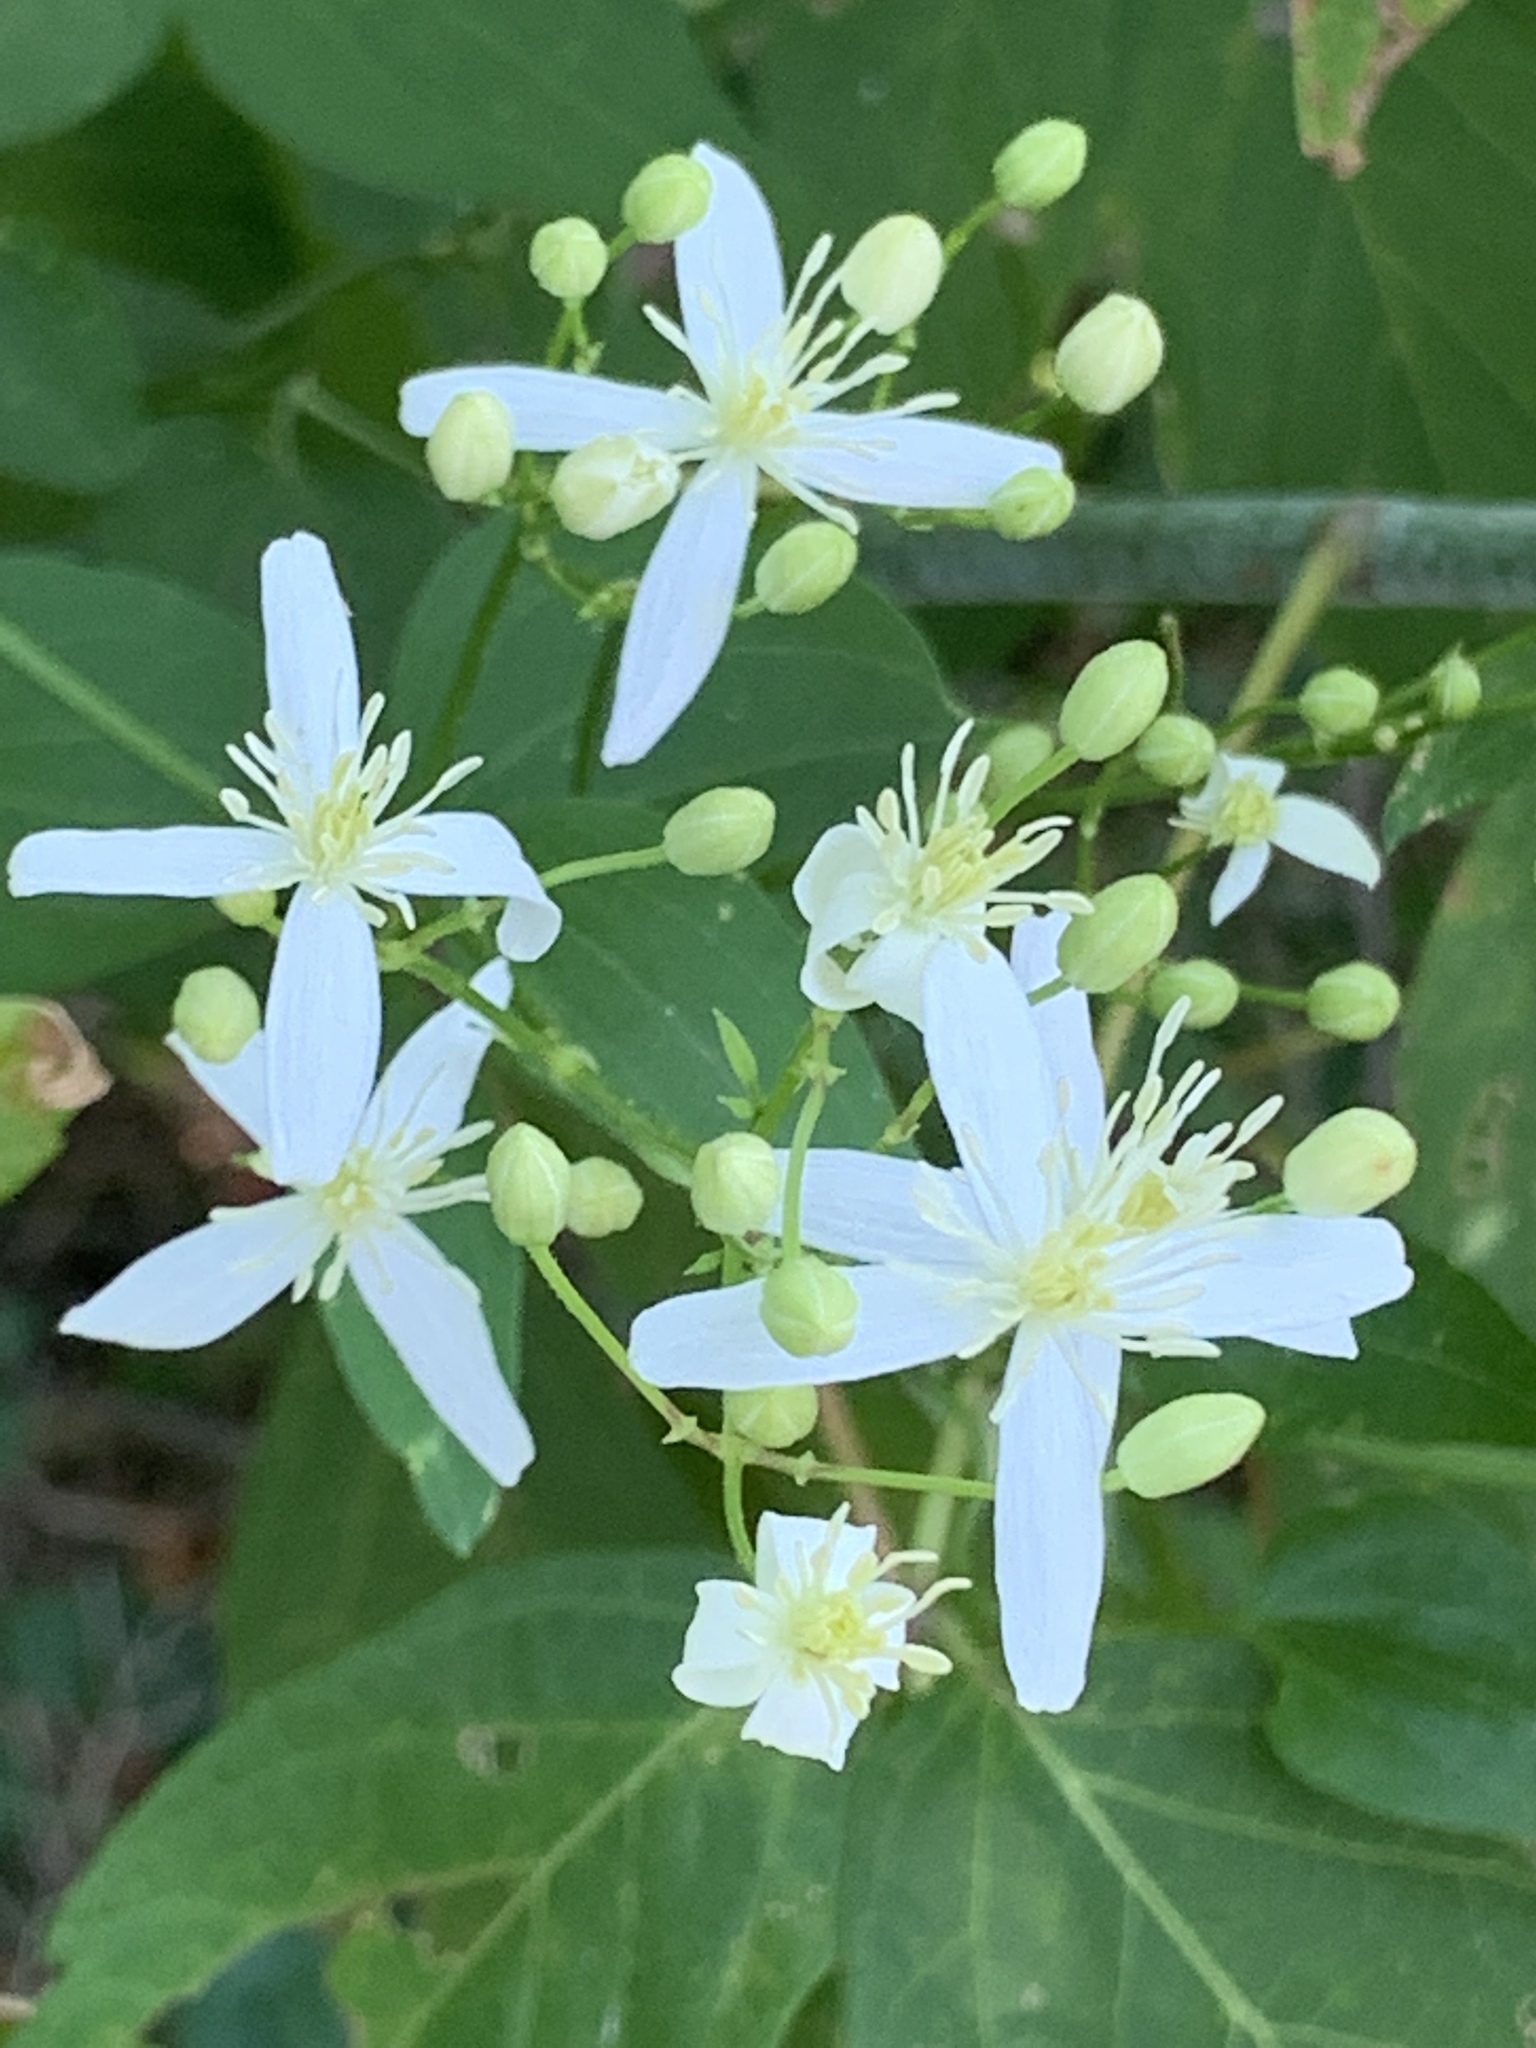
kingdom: Plantae
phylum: Tracheophyta
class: Magnoliopsida
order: Ranunculales
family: Ranunculaceae
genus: Clematis
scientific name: Clematis terniflora
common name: Sweet autumn clematis
